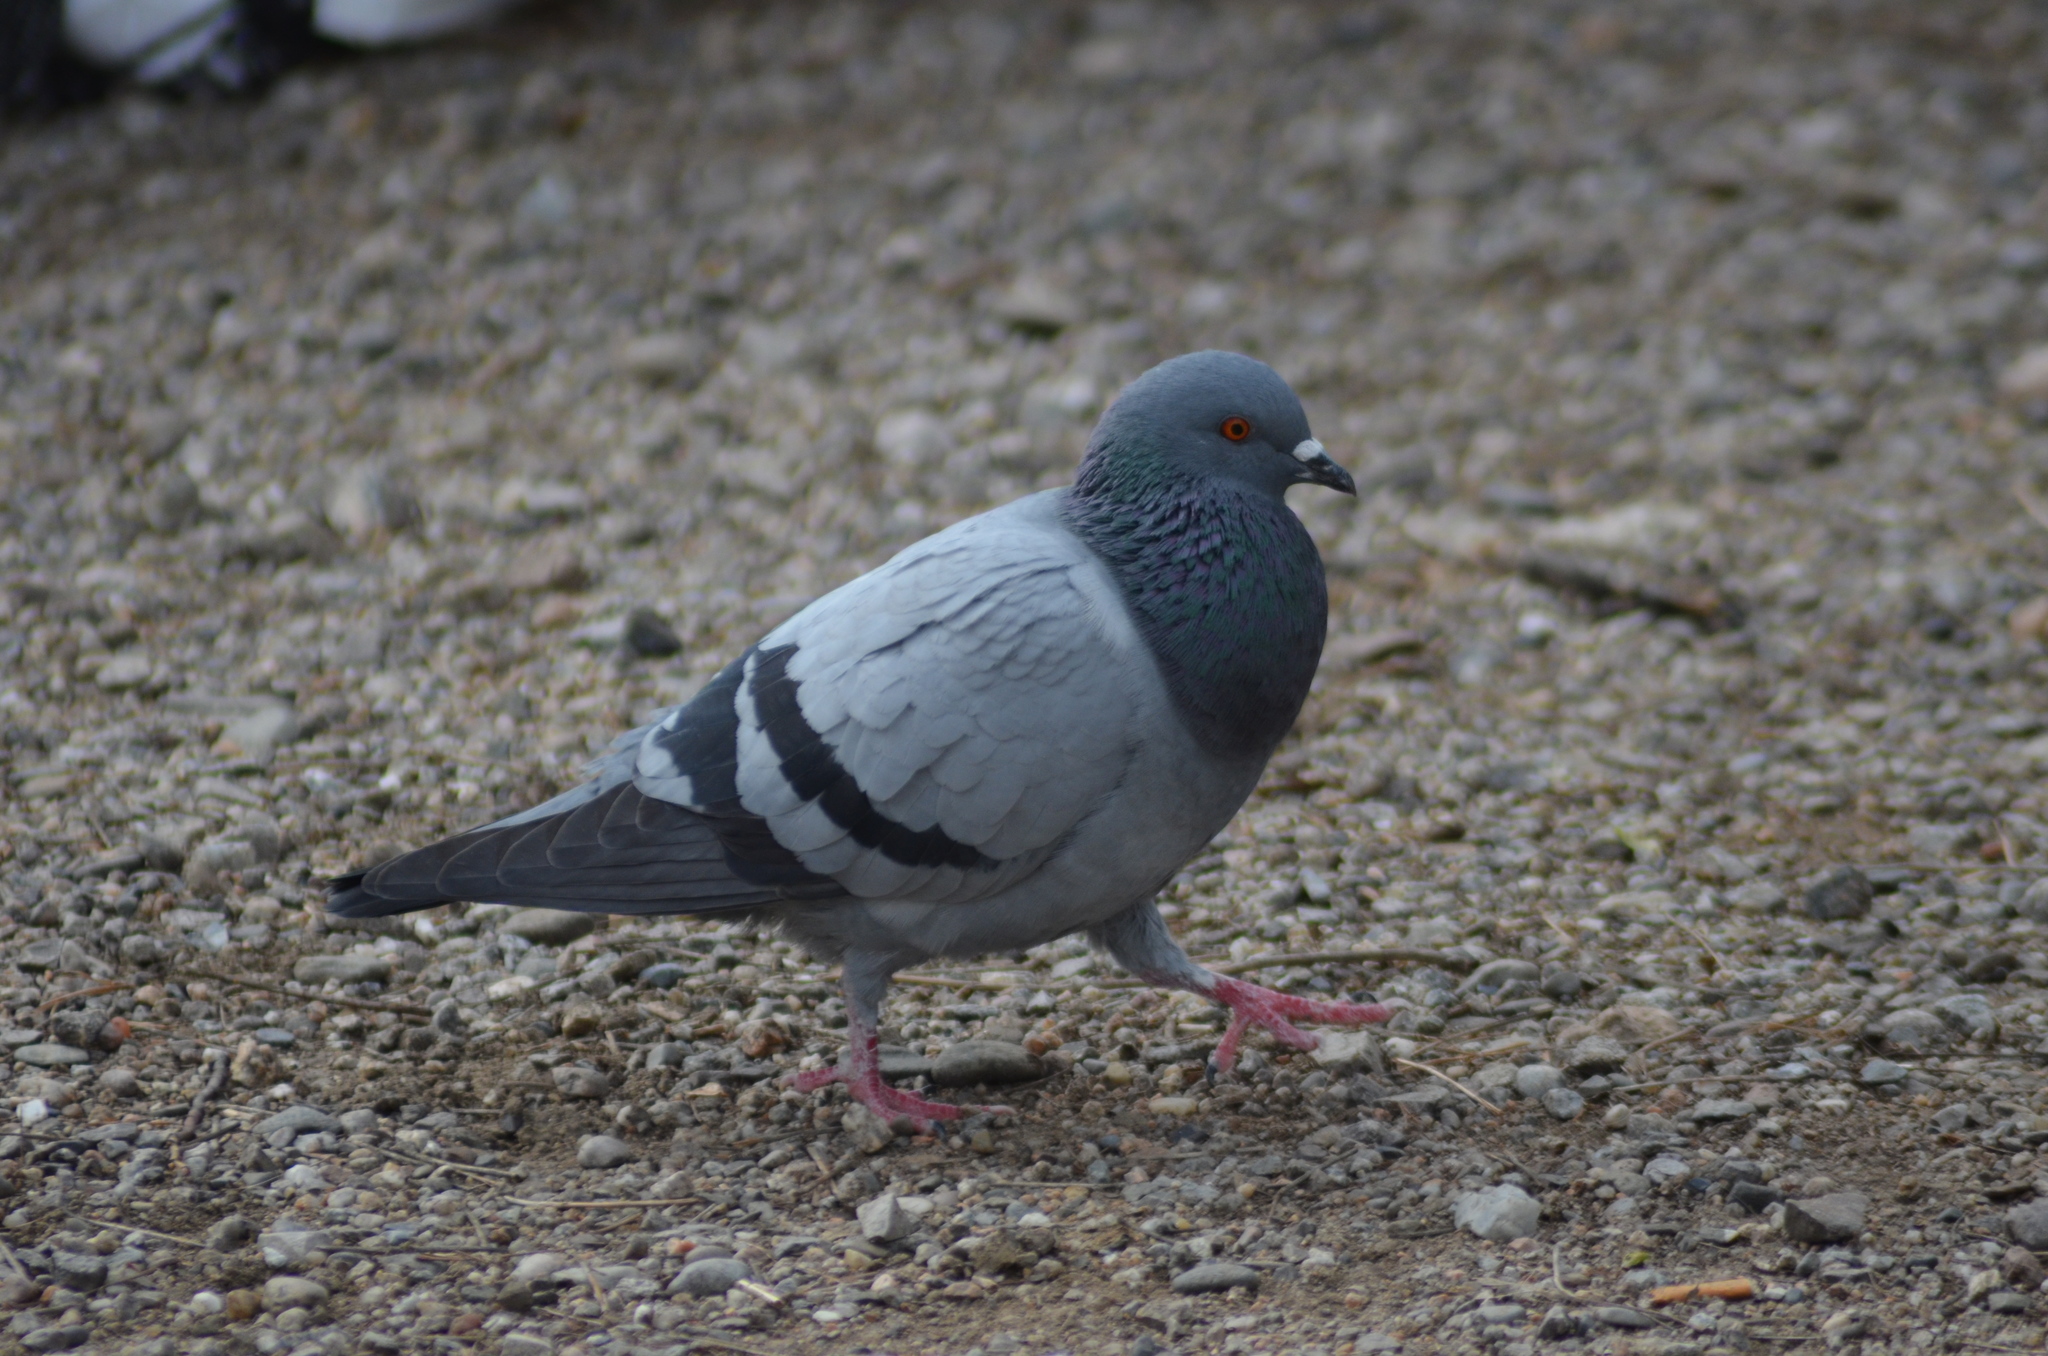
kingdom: Animalia
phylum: Chordata
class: Aves
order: Columbiformes
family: Columbidae
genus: Columba
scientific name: Columba livia
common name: Rock pigeon
